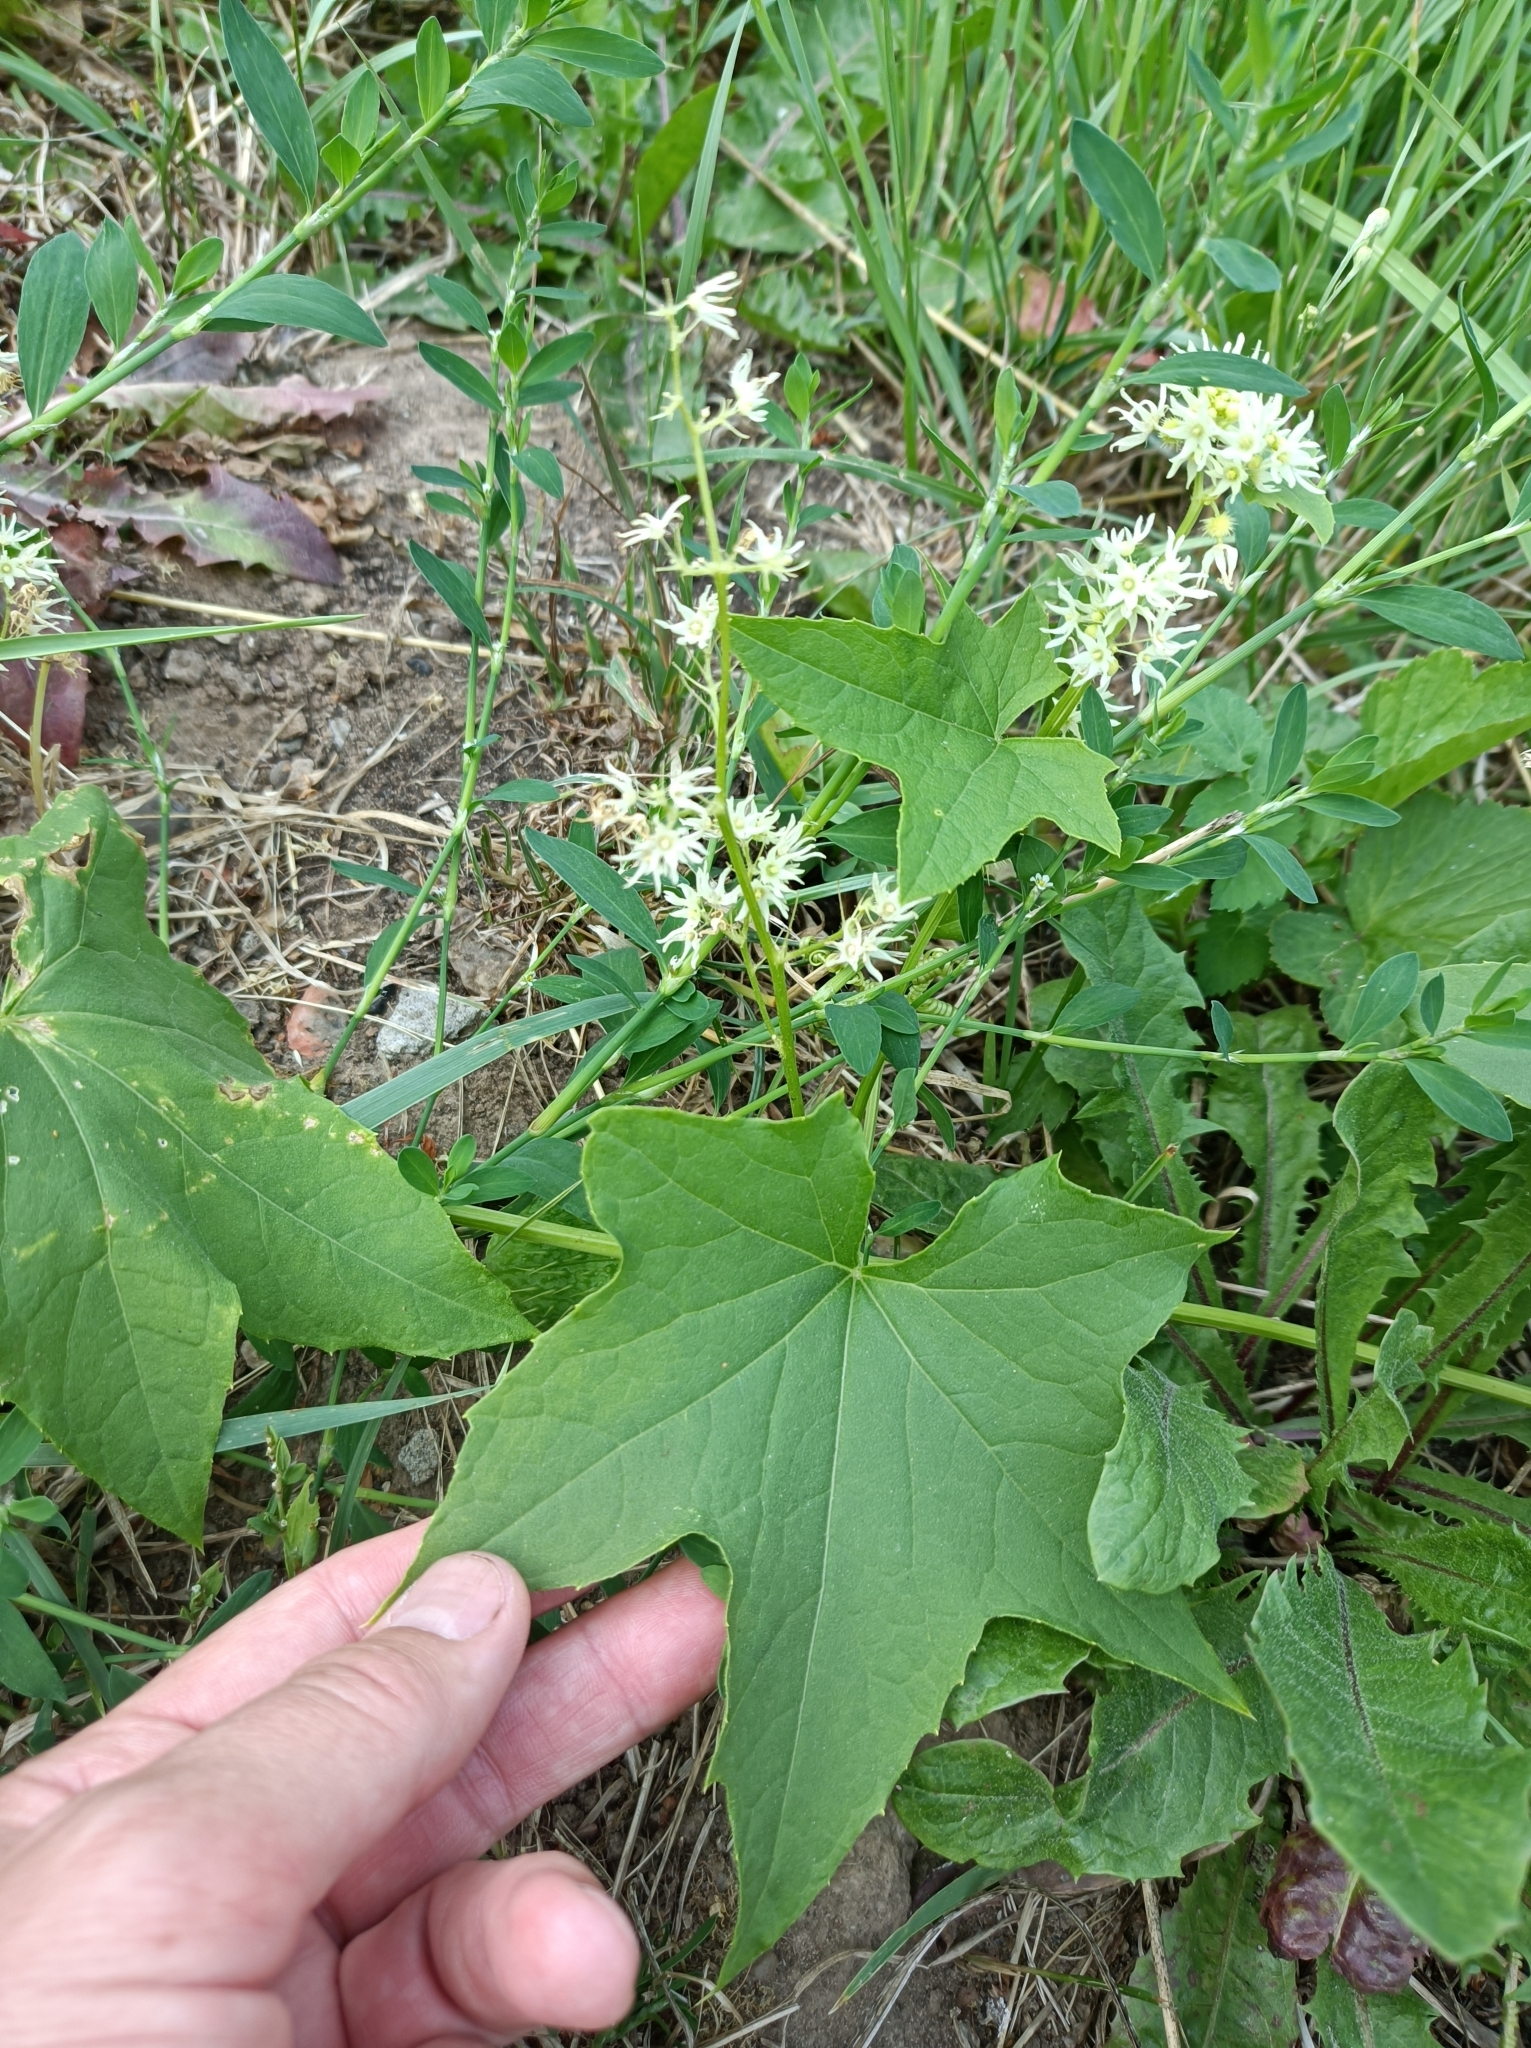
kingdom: Plantae
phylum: Tracheophyta
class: Magnoliopsida
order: Cucurbitales
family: Cucurbitaceae
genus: Echinocystis
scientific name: Echinocystis lobata
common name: Wild cucumber
